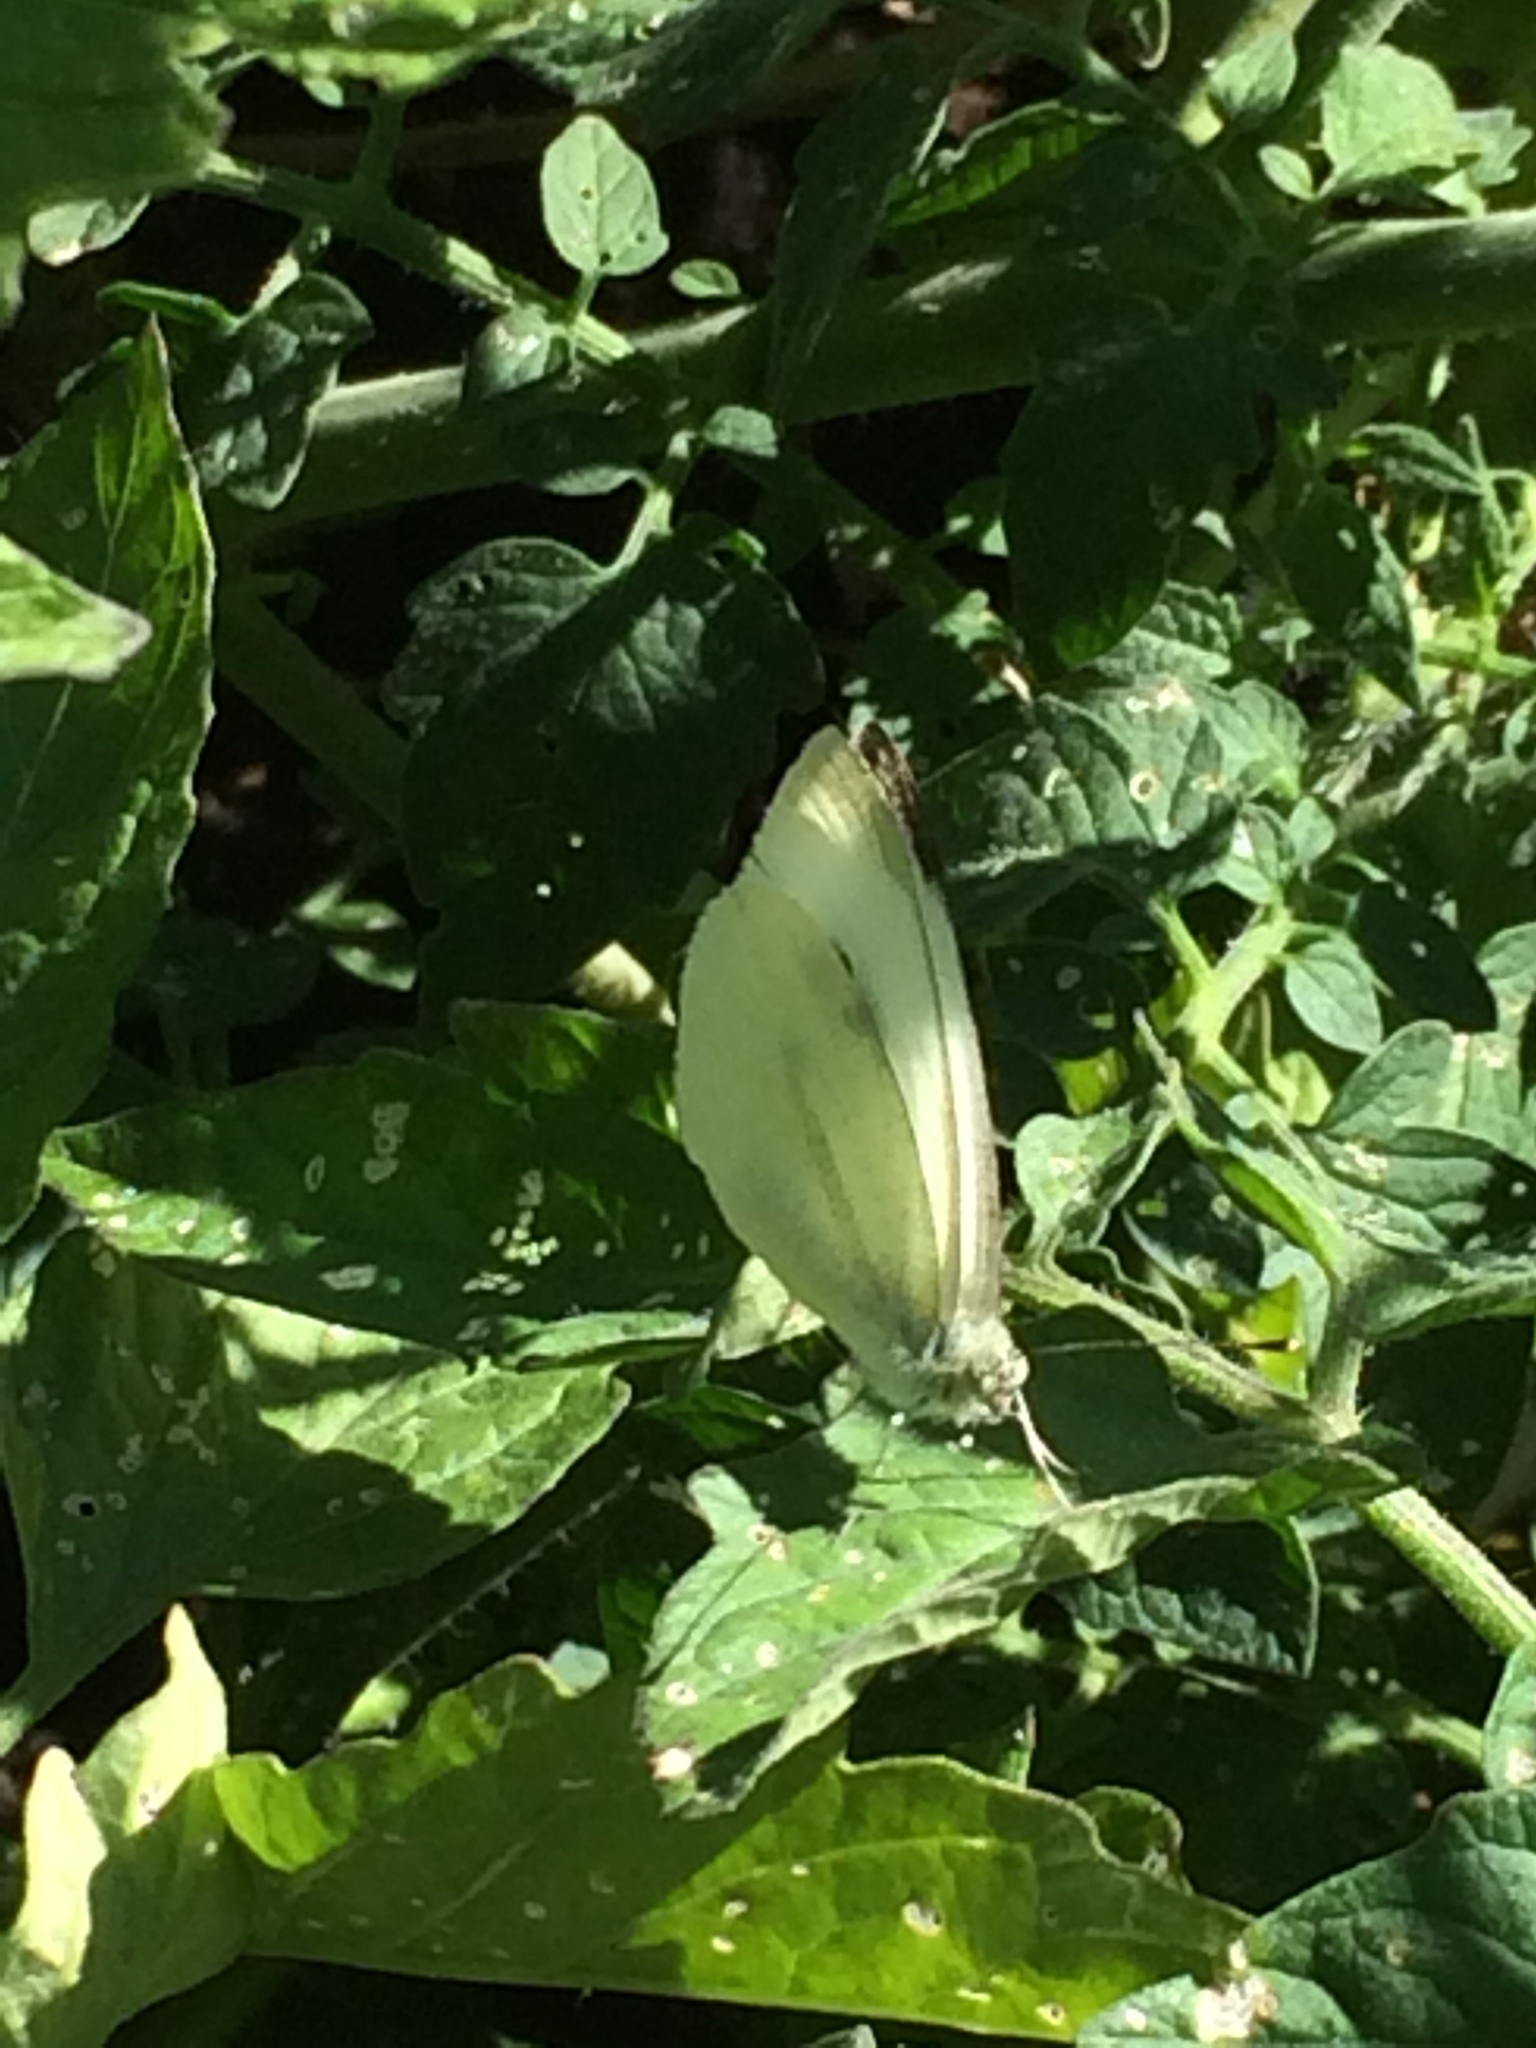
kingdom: Animalia
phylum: Arthropoda
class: Insecta
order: Lepidoptera
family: Pieridae
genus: Pieris
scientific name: Pieris rapae
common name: Small white
